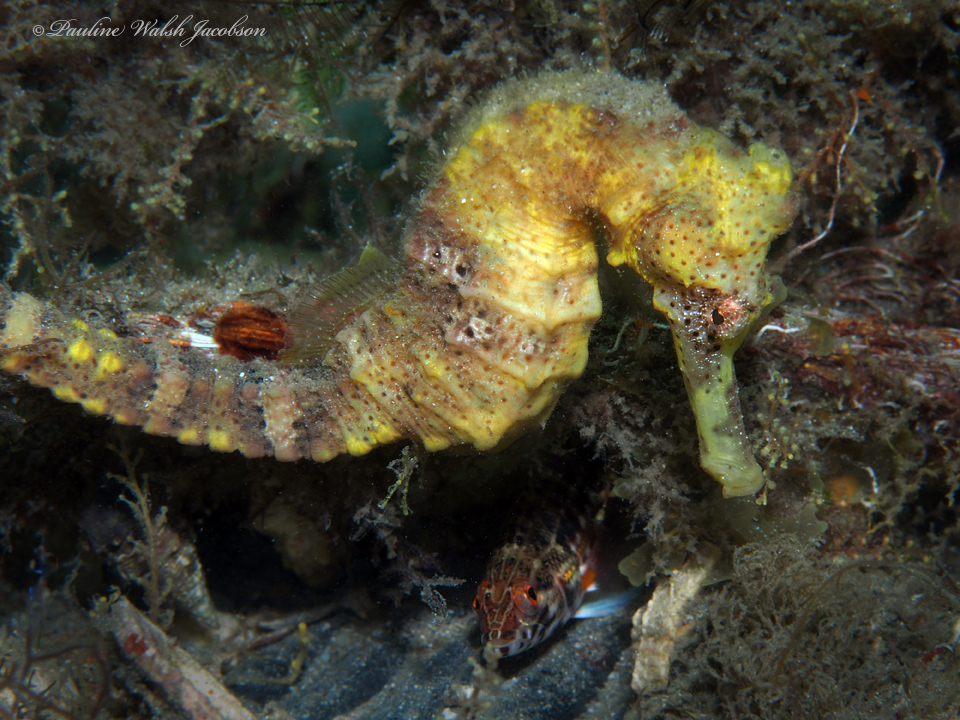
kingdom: Animalia
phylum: Chordata
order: Syngnathiformes
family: Syngnathidae
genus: Hippocampus
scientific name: Hippocampus reidi
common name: Slender seahorse
